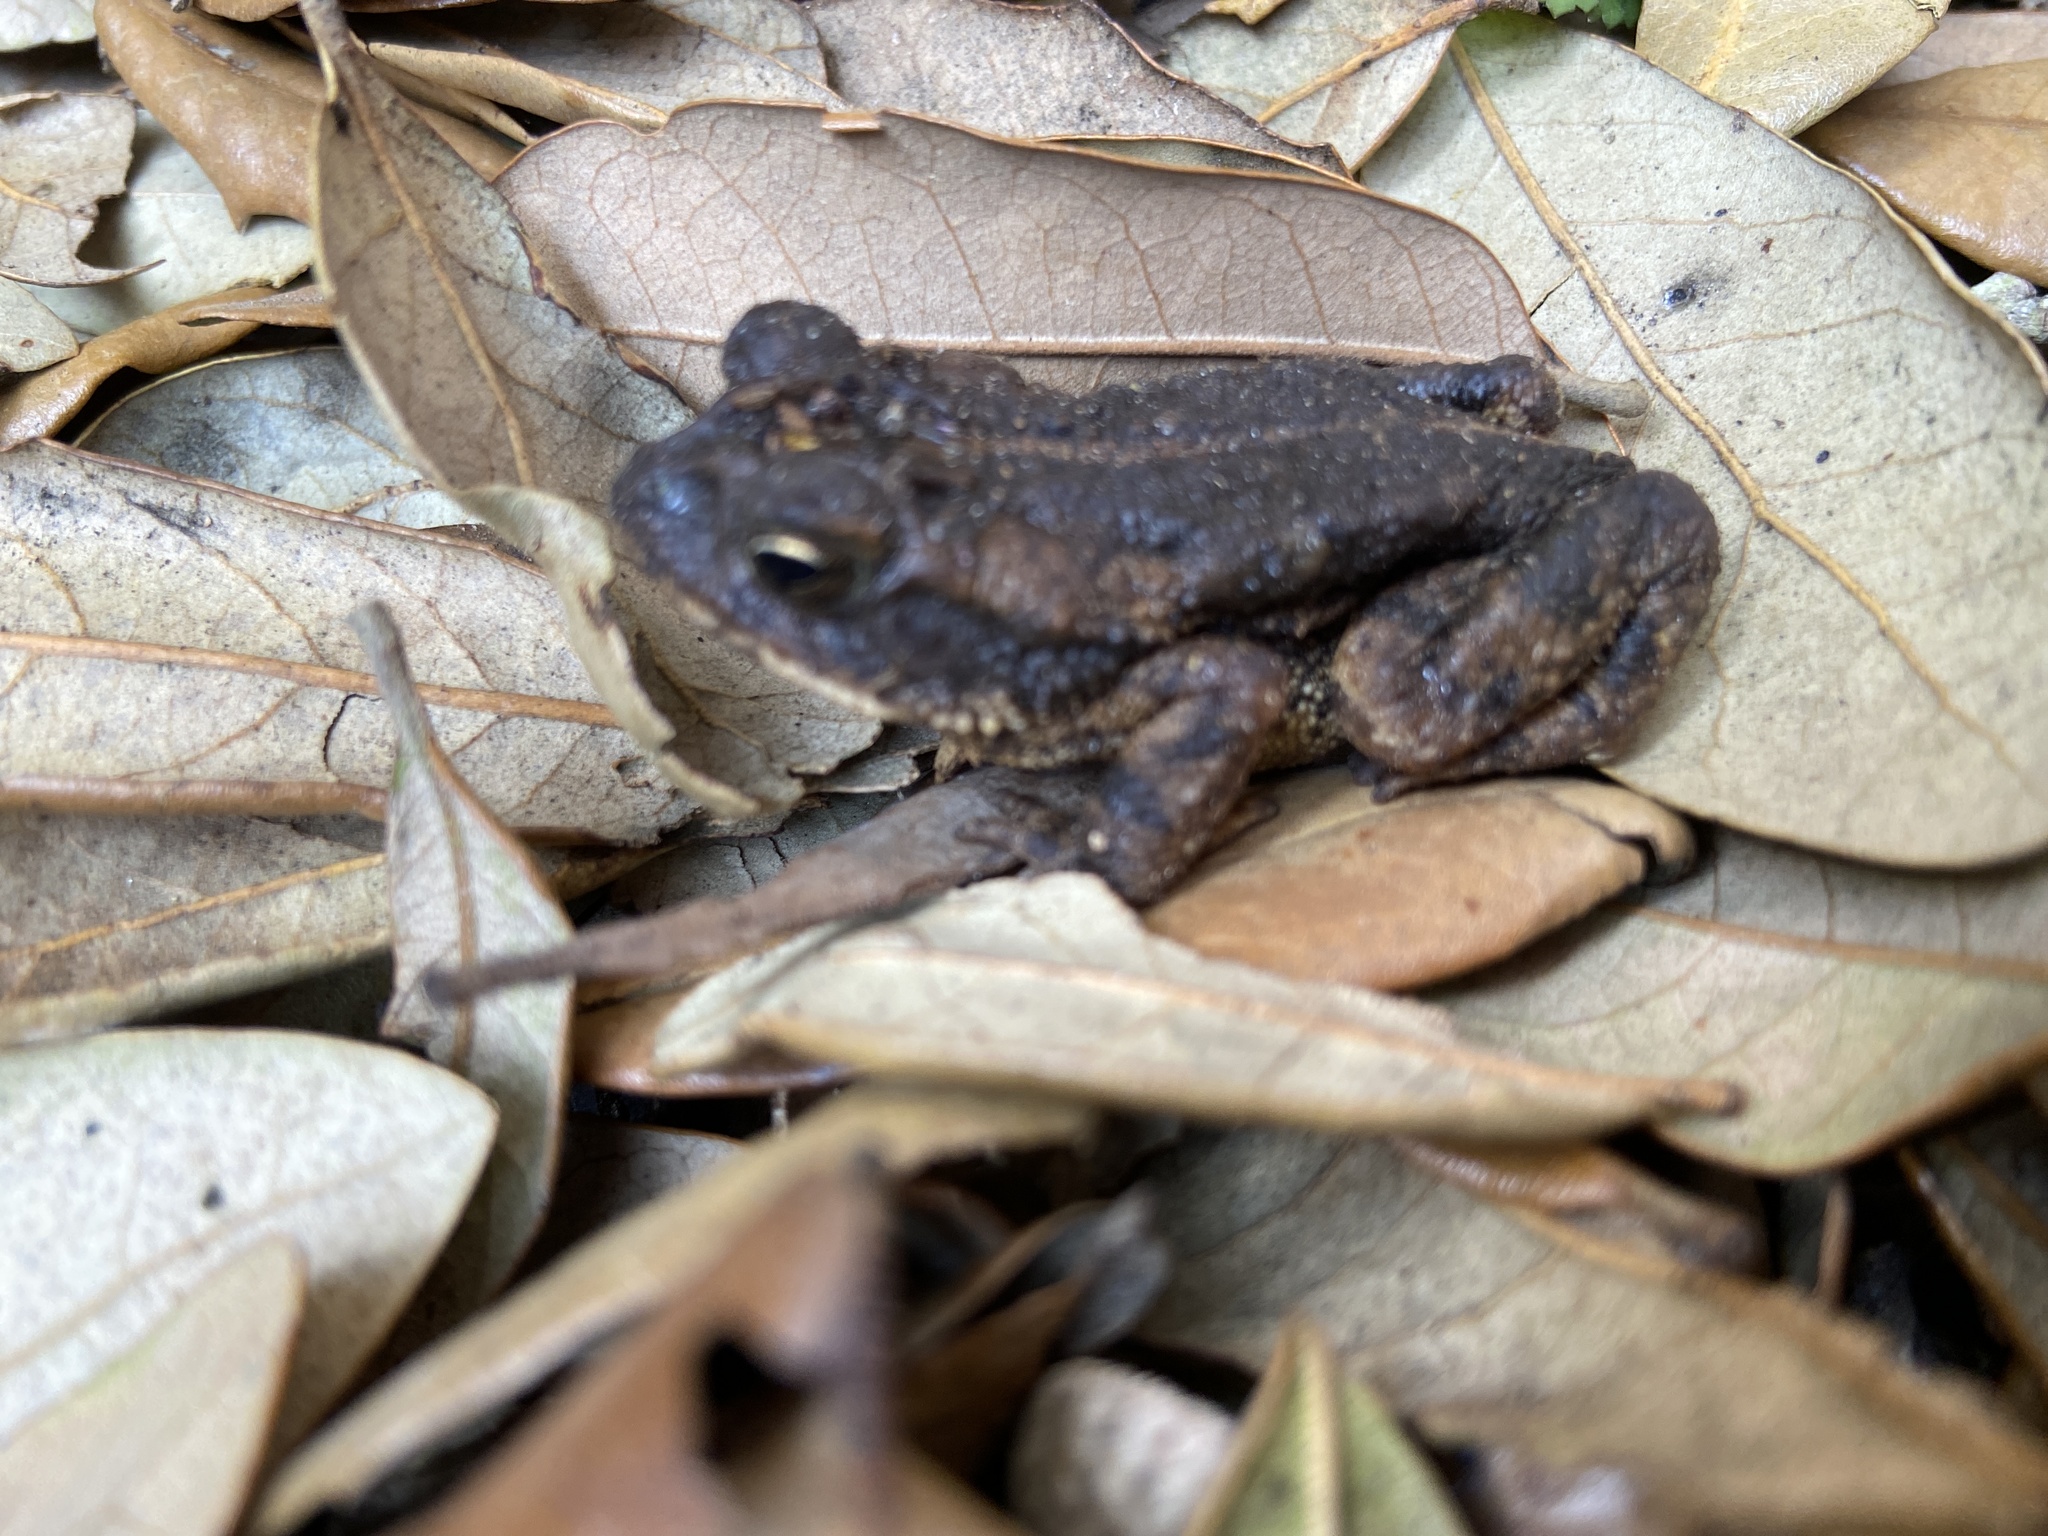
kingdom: Animalia
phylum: Chordata
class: Amphibia
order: Anura
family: Bufonidae
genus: Incilius
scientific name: Incilius nebulifer
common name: Gulf coast toad
